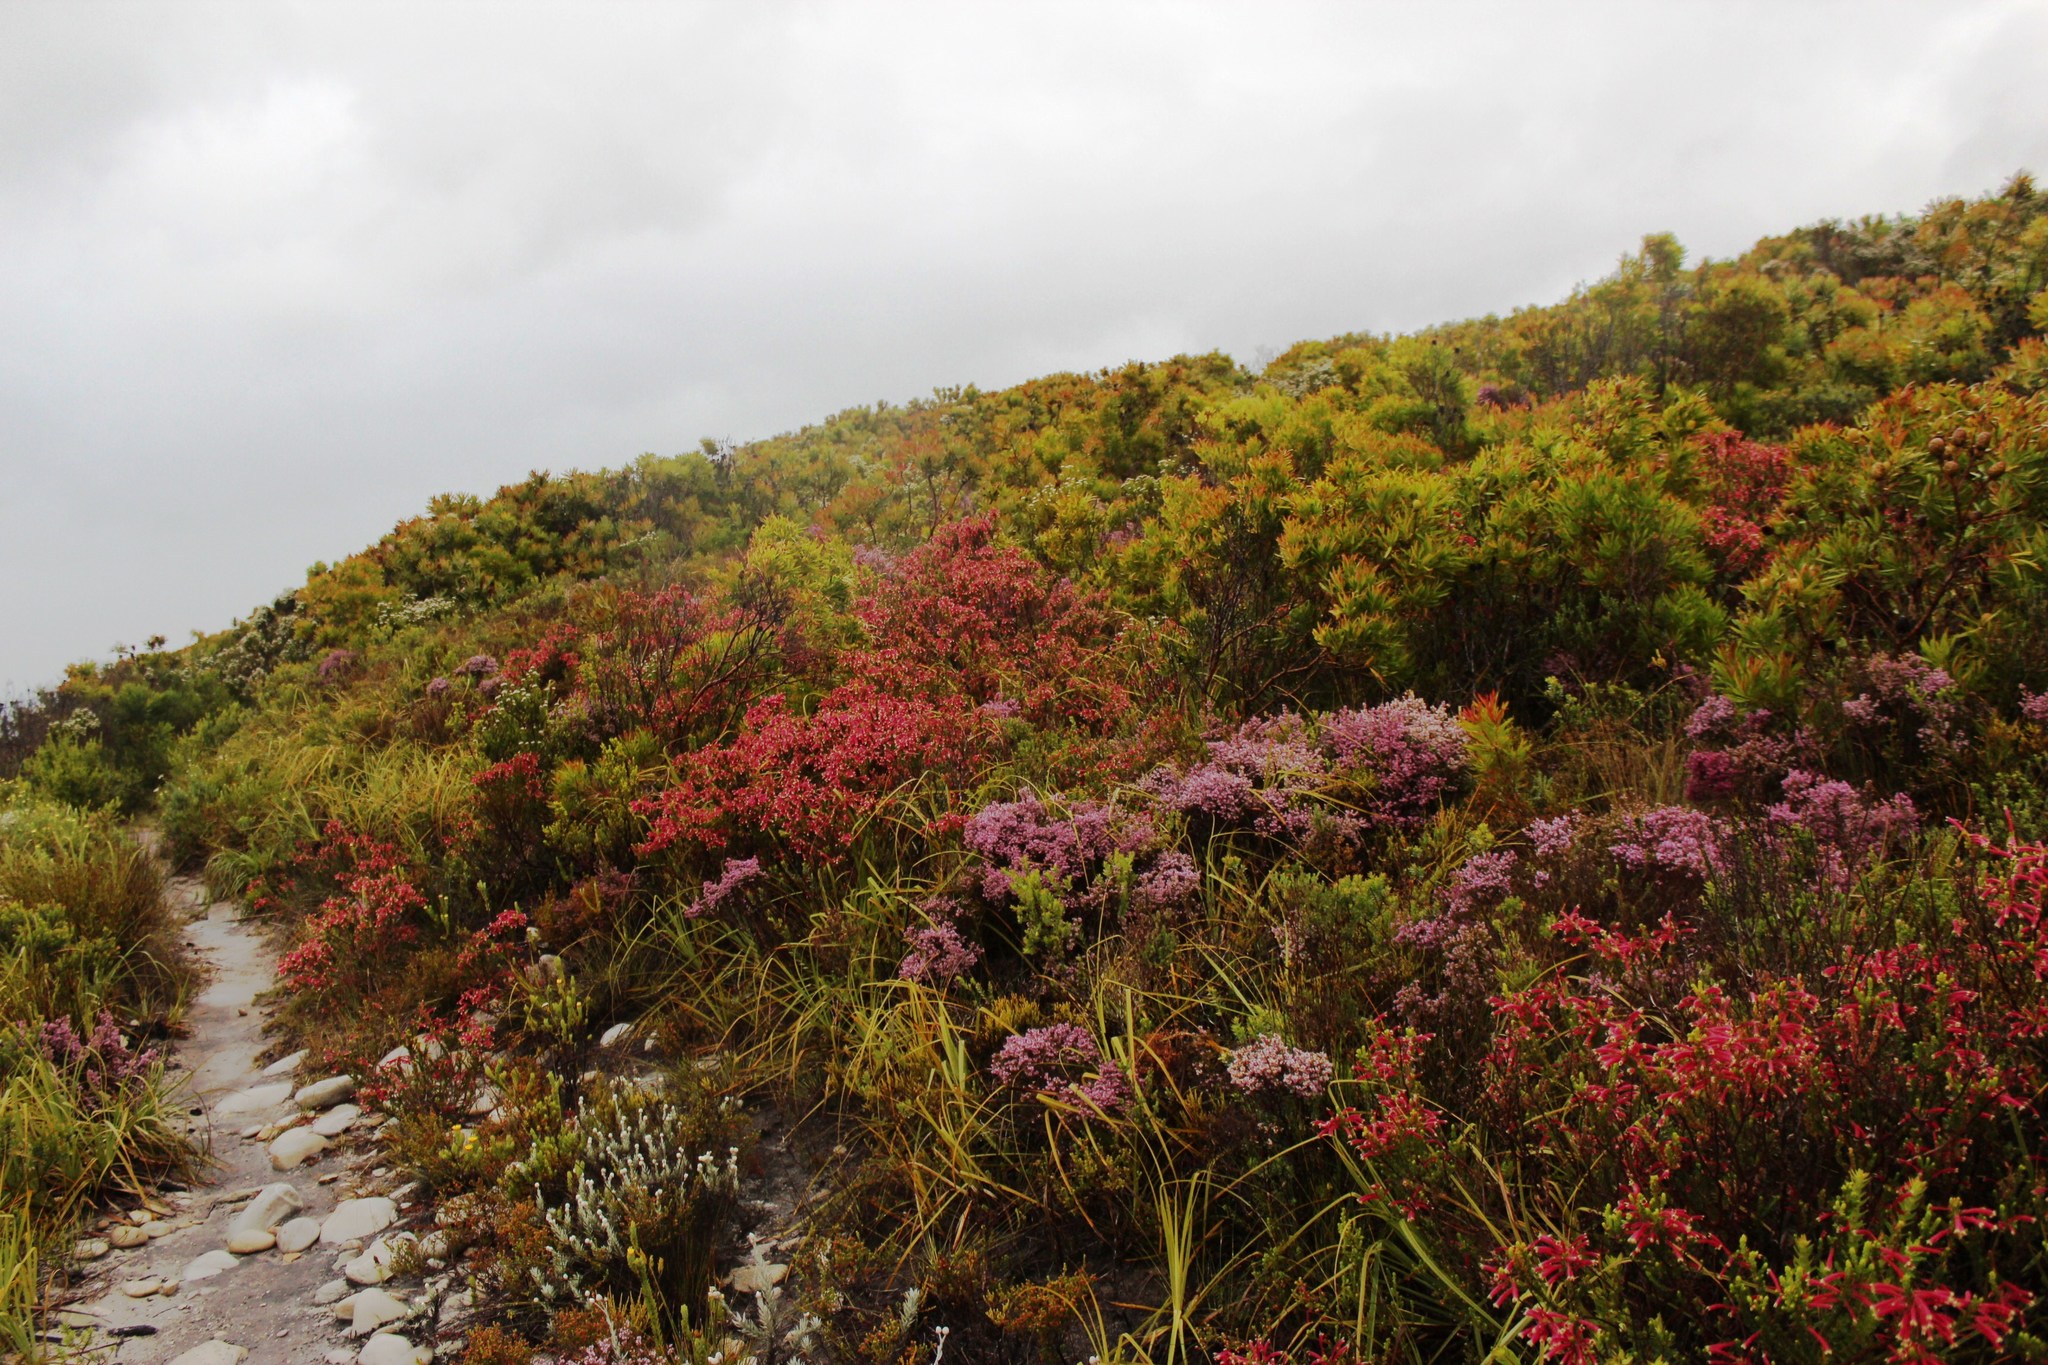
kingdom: Plantae
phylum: Tracheophyta
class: Magnoliopsida
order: Ericales
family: Ericaceae
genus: Erica
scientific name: Erica densifolia
